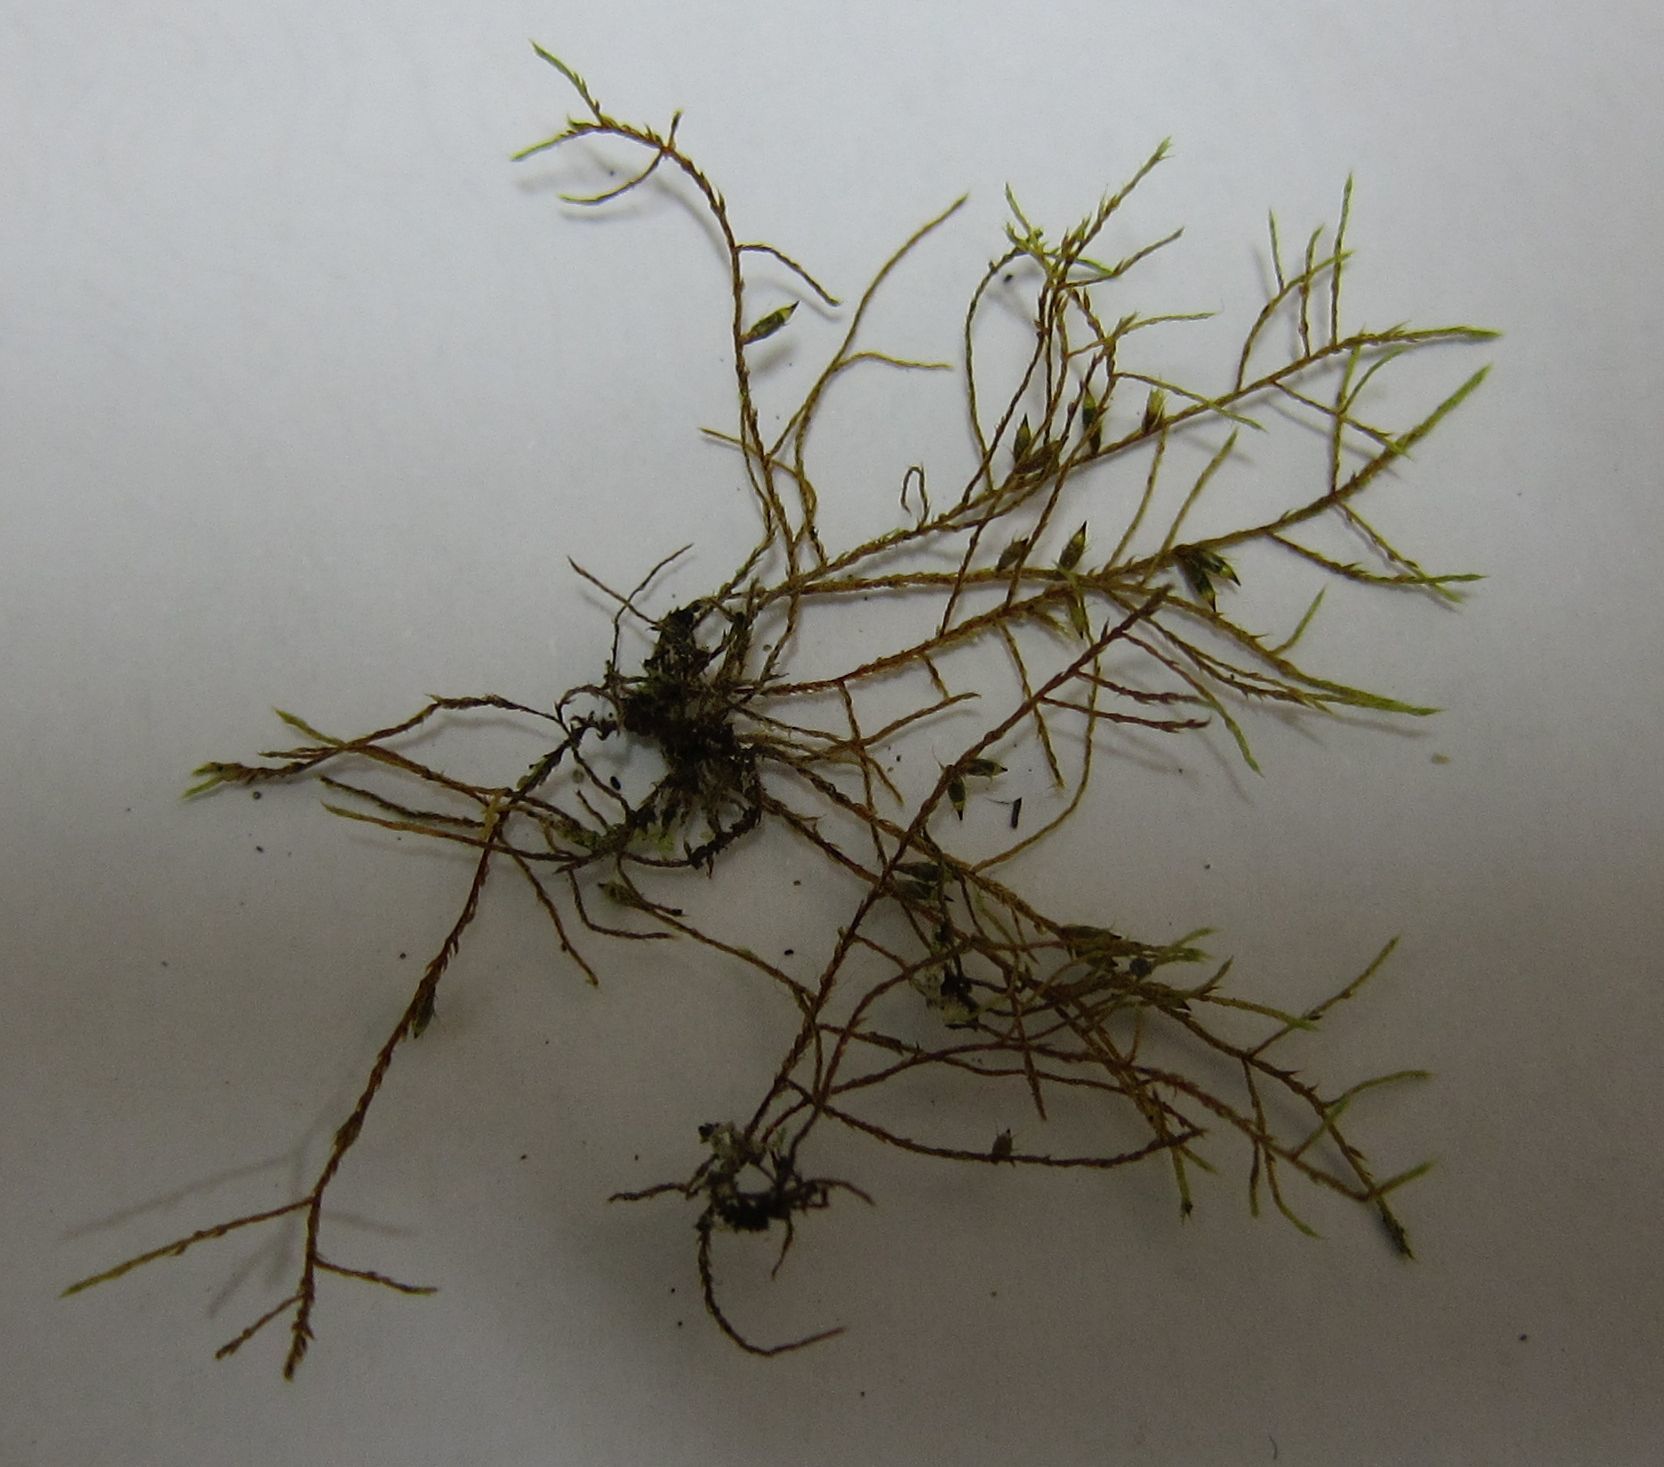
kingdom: Plantae
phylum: Bryophyta
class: Bryopsida
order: Hypnales
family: Cryphaeaceae
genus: Cryphaea
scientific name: Cryphaea tenella
